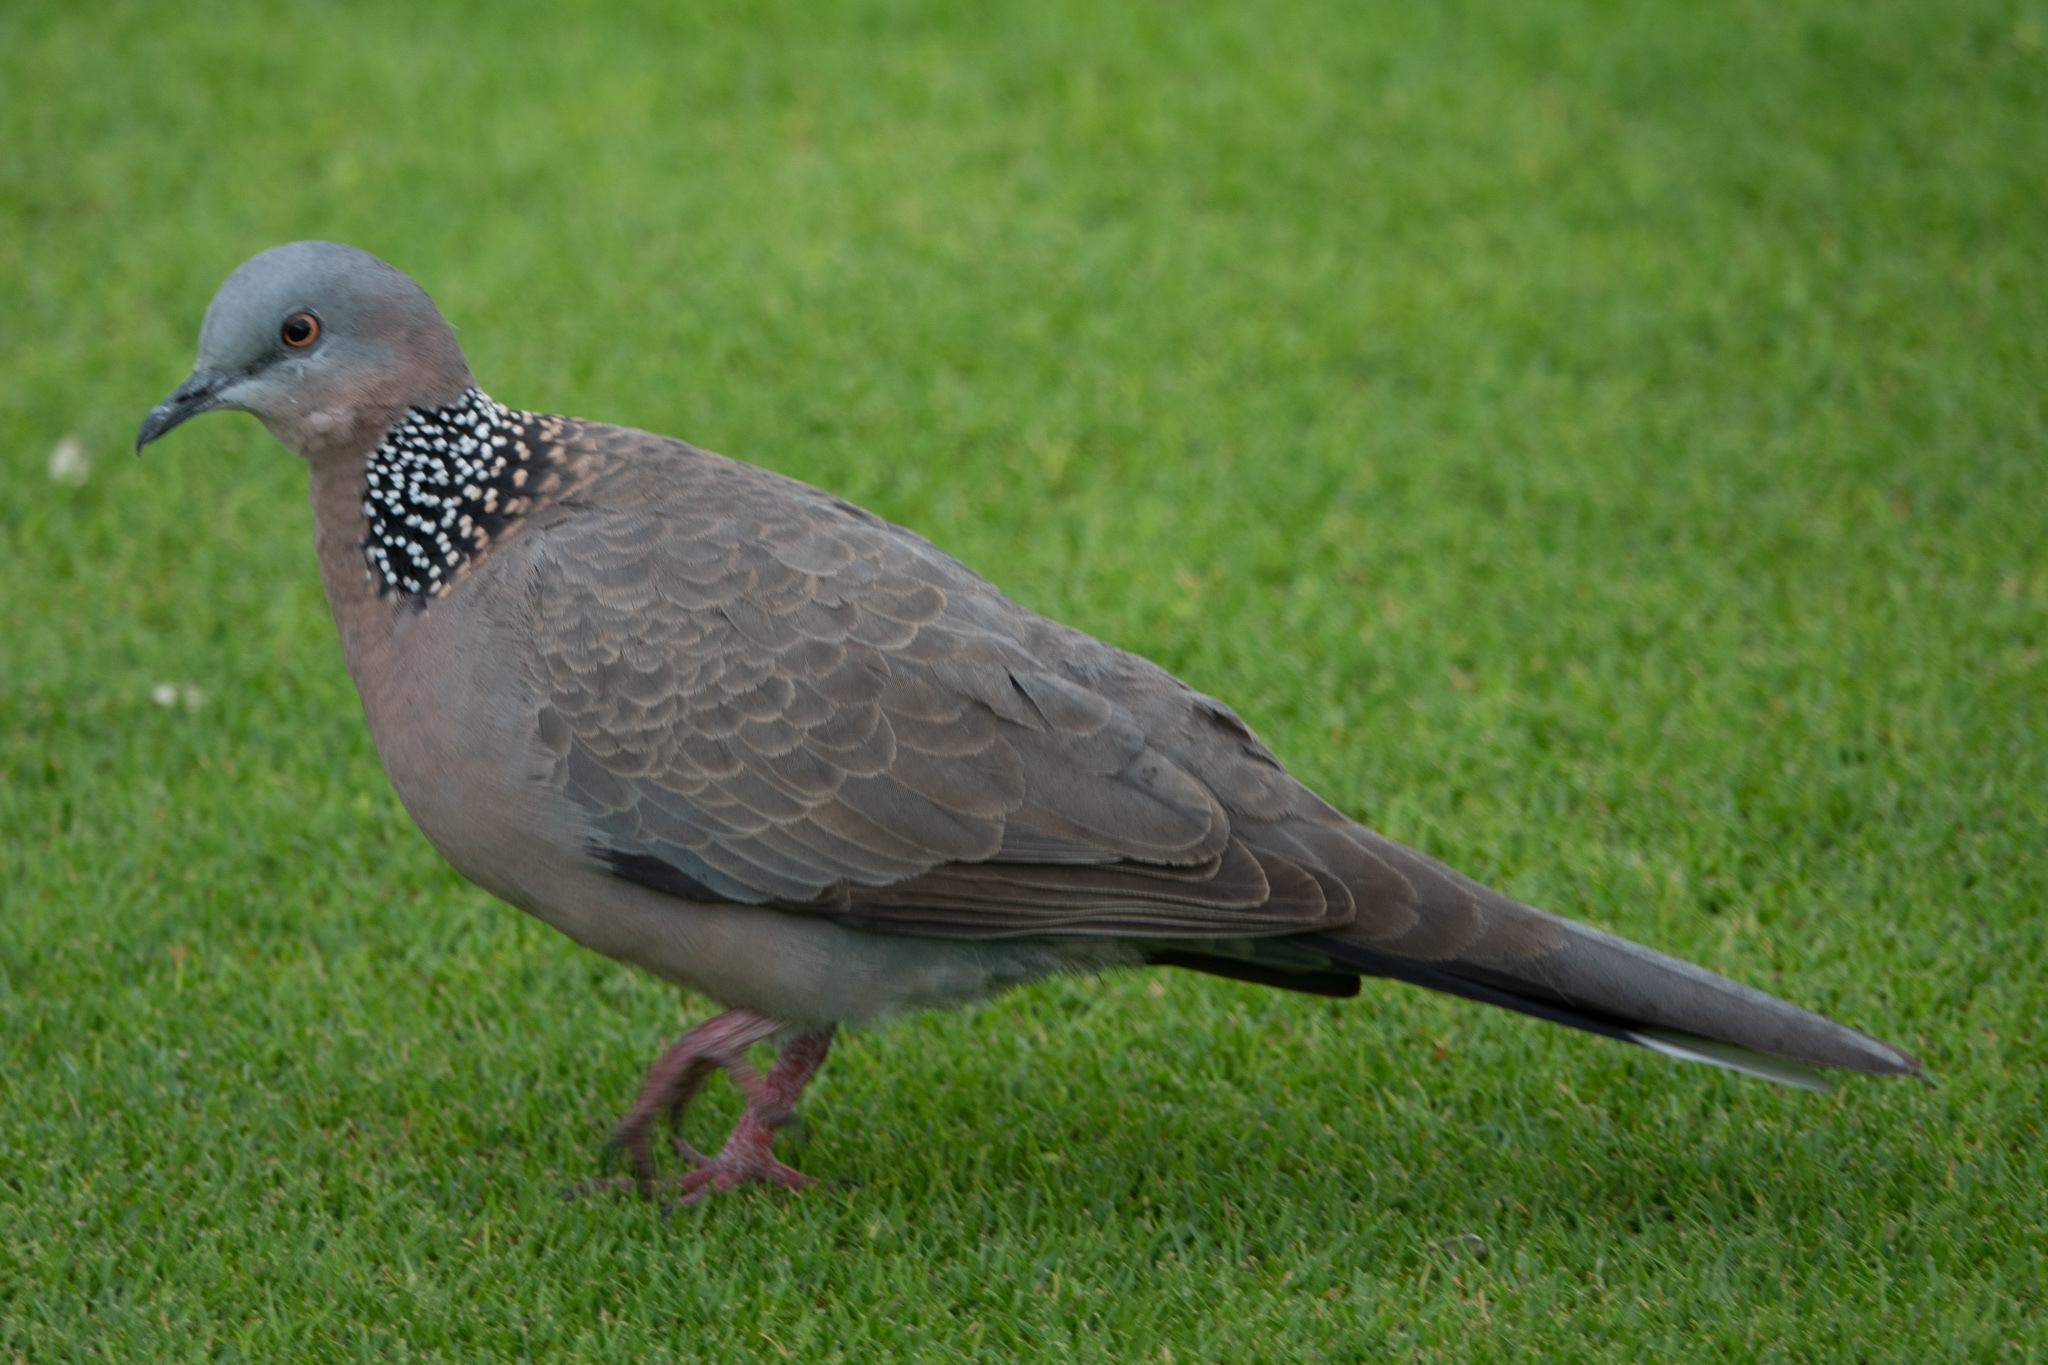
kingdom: Animalia
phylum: Chordata
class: Aves
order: Columbiformes
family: Columbidae
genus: Spilopelia
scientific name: Spilopelia chinensis
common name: Spotted dove
